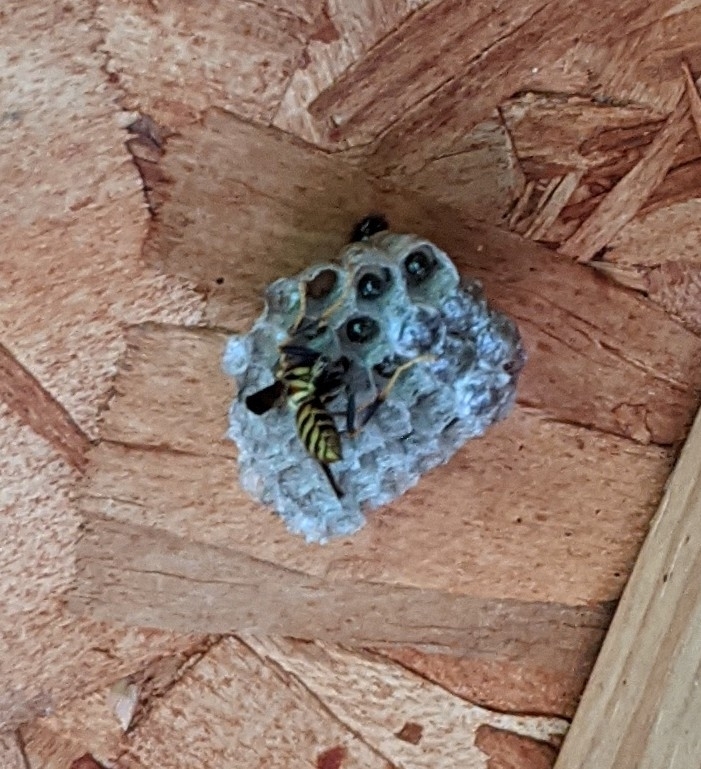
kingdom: Animalia
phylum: Arthropoda
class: Insecta
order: Hymenoptera
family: Eumenidae
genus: Polistes
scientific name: Polistes exclamans
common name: Paper wasp
